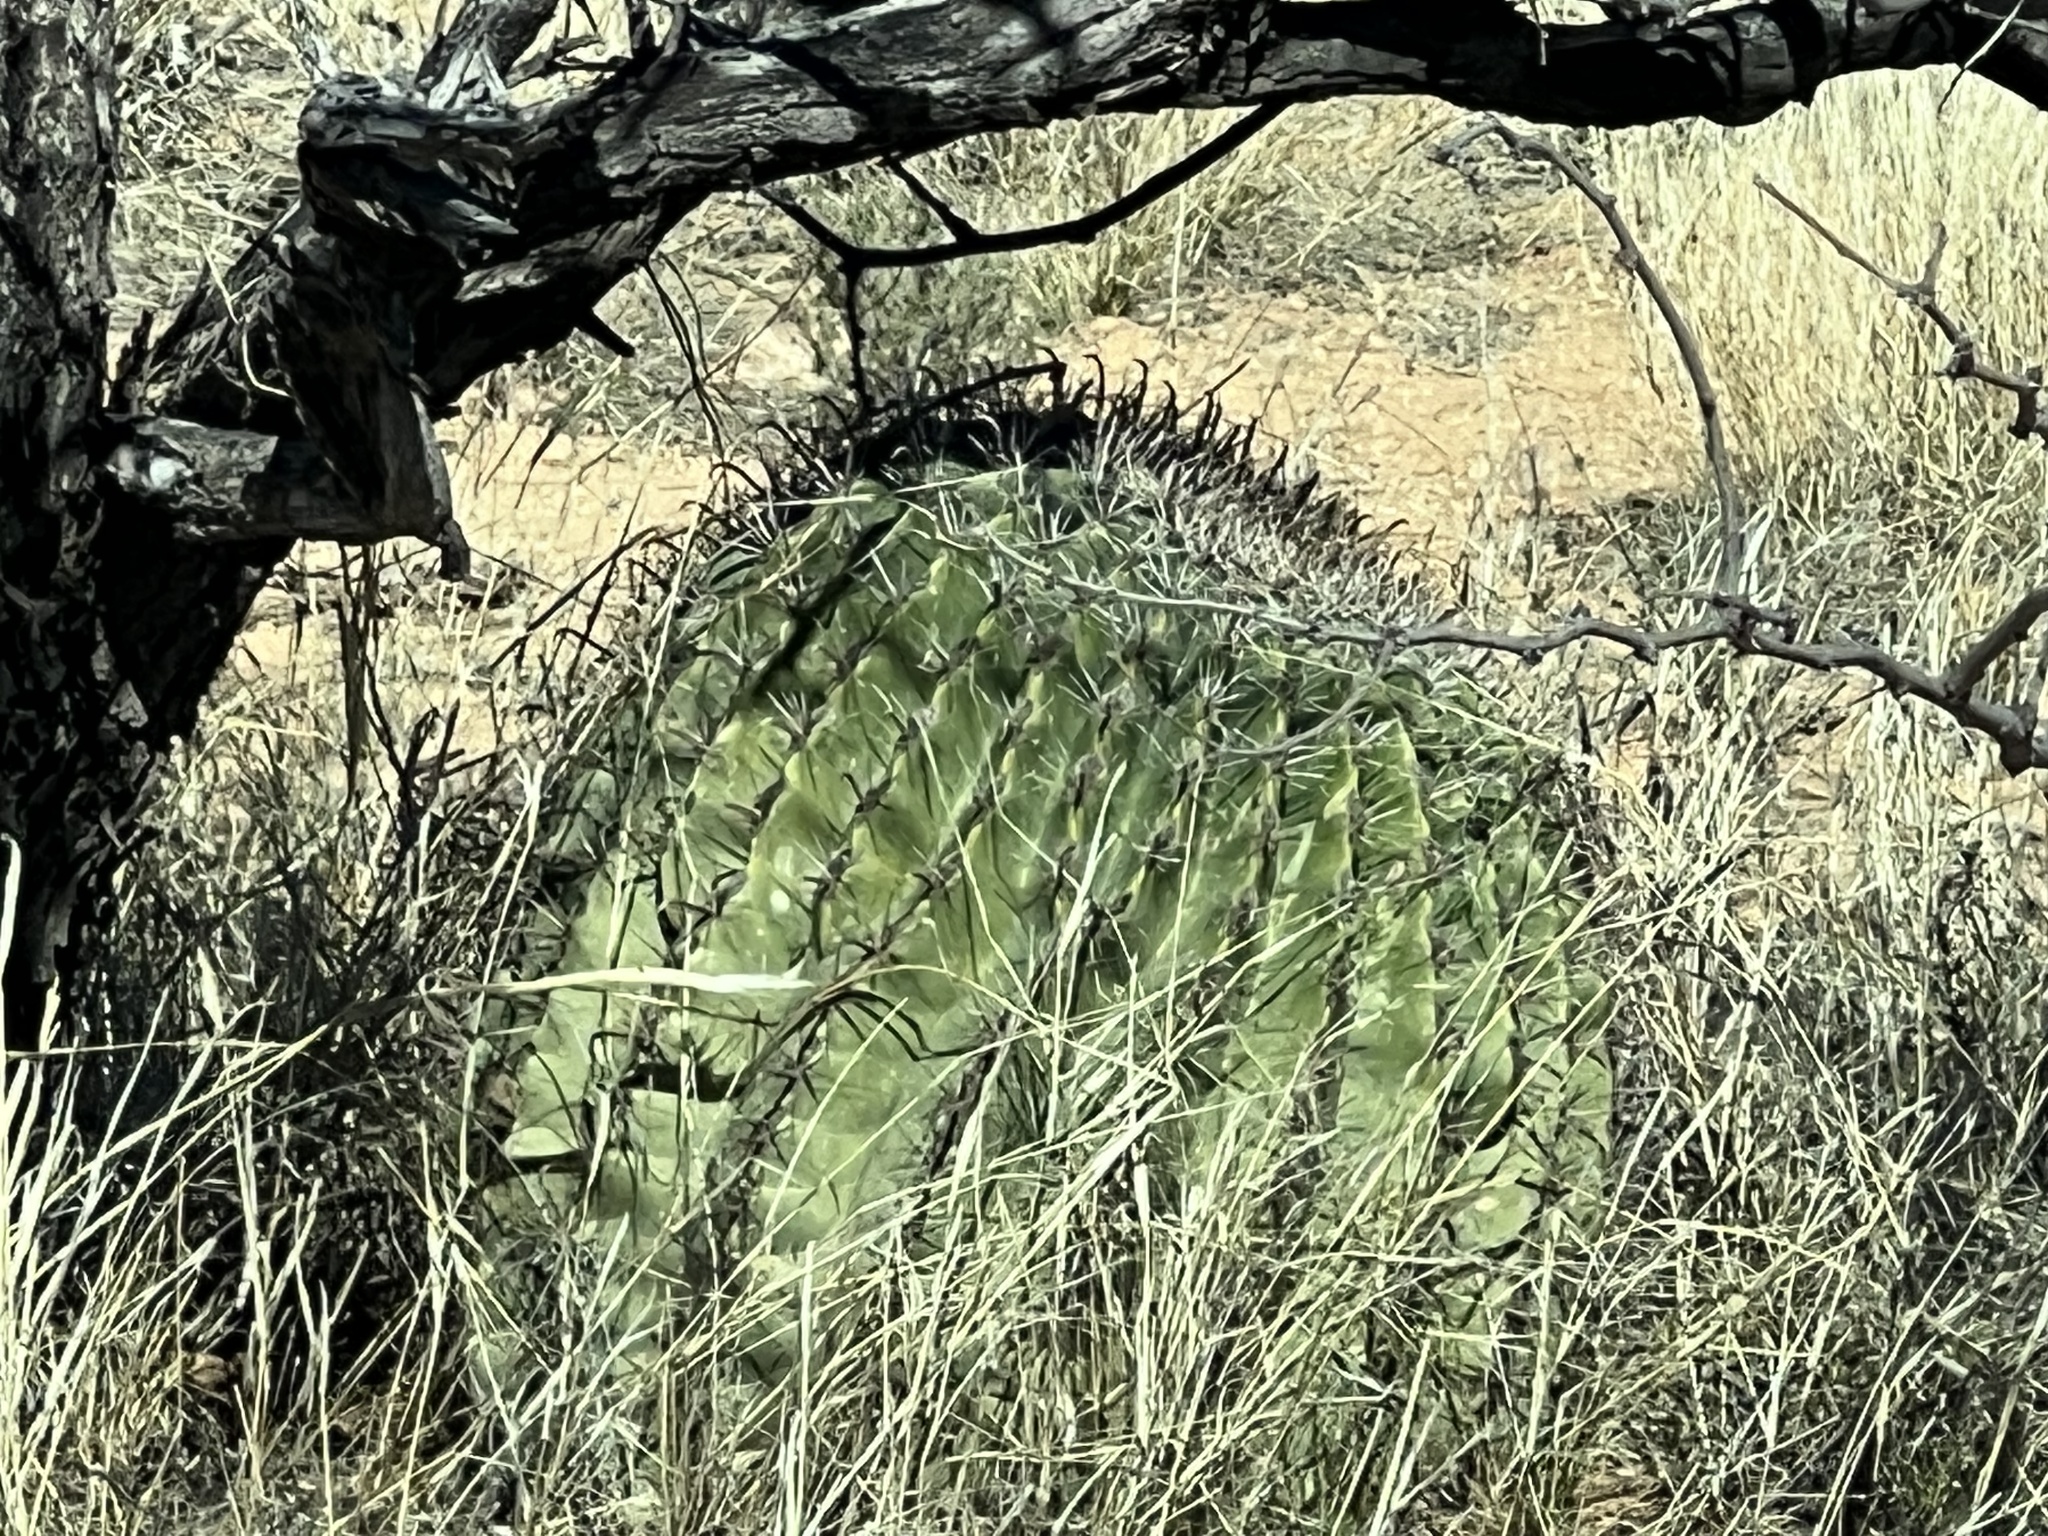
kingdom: Plantae
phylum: Tracheophyta
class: Magnoliopsida
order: Caryophyllales
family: Cactaceae
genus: Ferocactus
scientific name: Ferocactus wislizeni
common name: Candy barrel cactus
